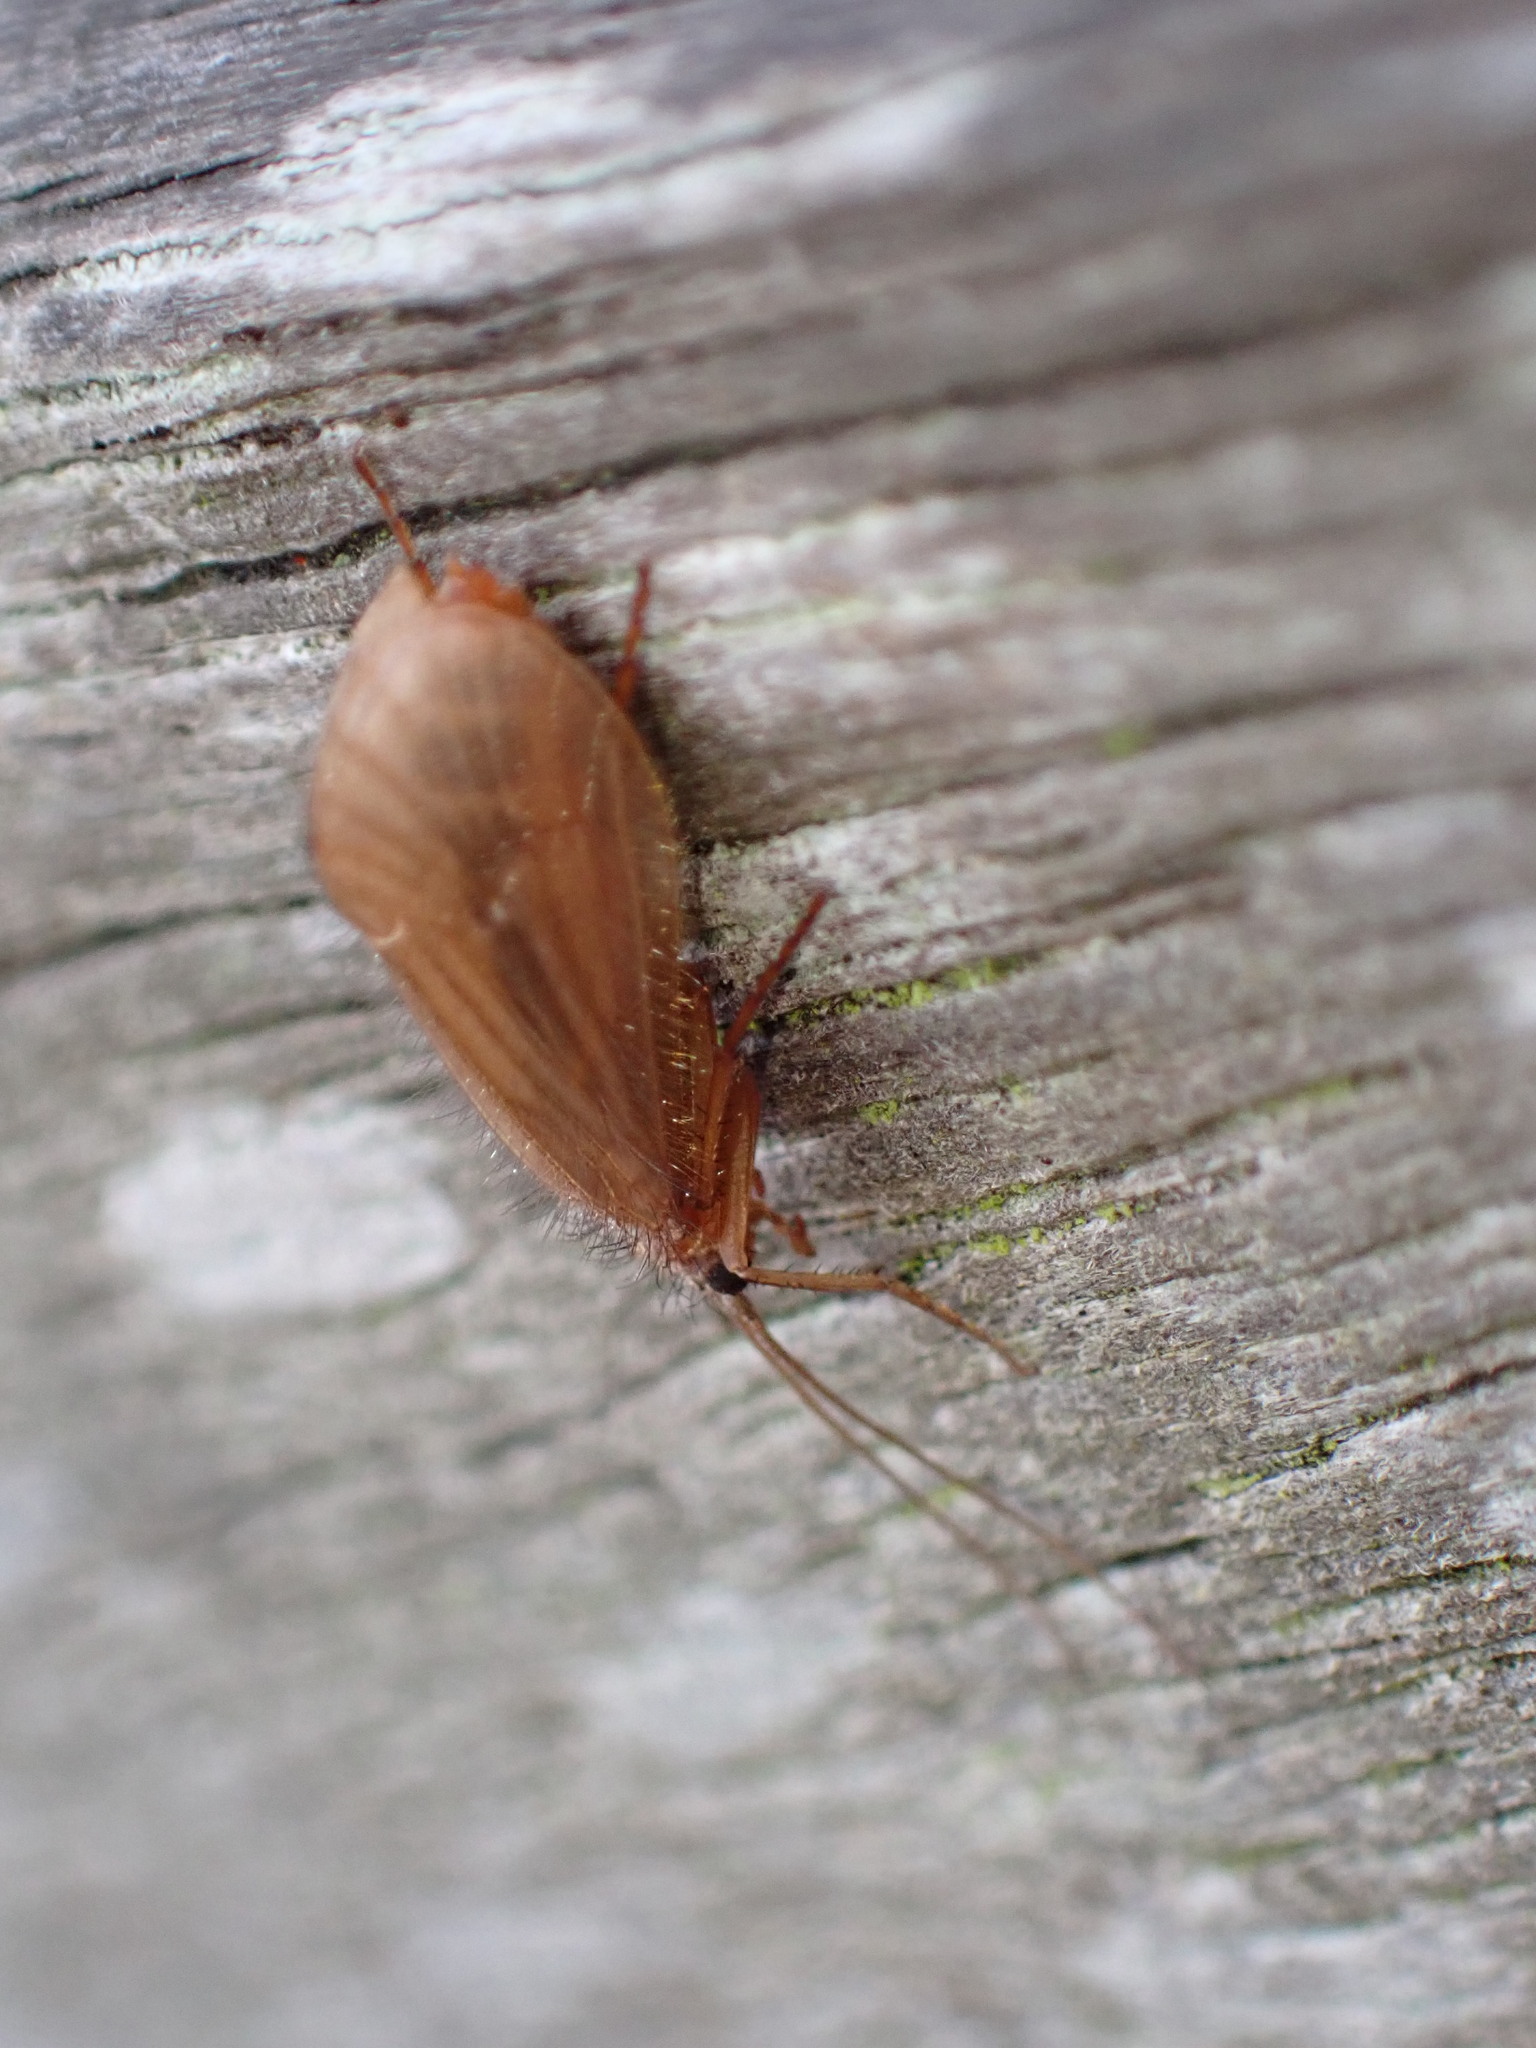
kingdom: Animalia
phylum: Arthropoda
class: Insecta
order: Trichoptera
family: Limnephilidae
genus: Chaetopteryx
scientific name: Chaetopteryx villosa
